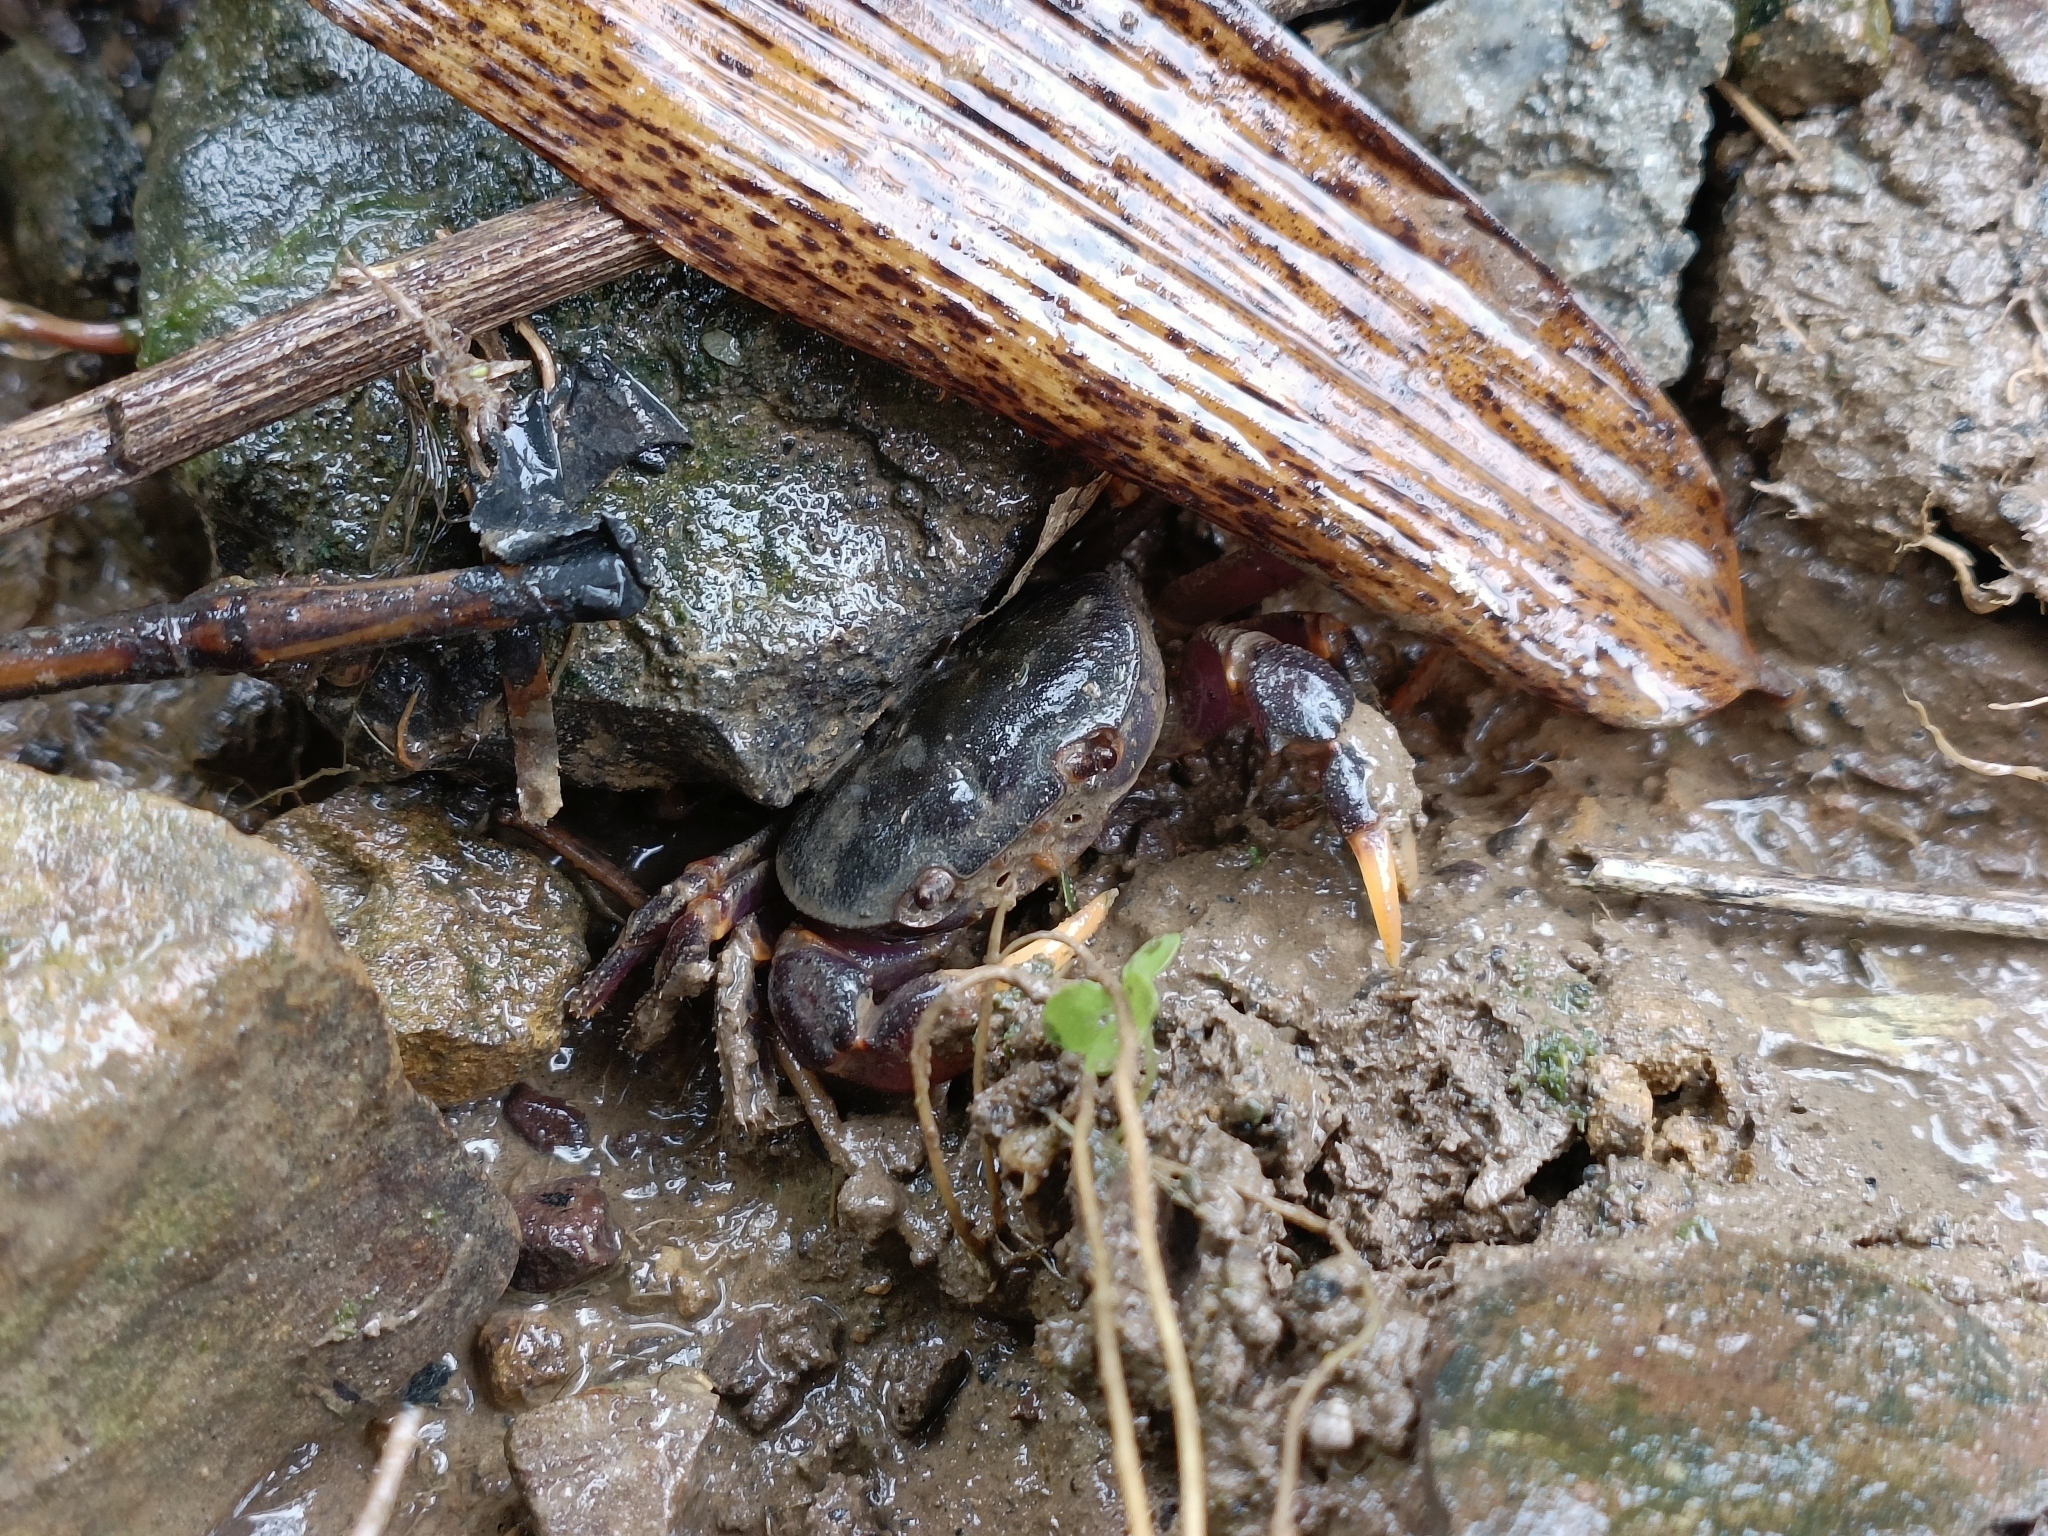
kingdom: Animalia
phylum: Arthropoda
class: Malacostraca
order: Decapoda
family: Potamidae
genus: Geothelphusa
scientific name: Geothelphusa miyazakii
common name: Miyazaki's crab
